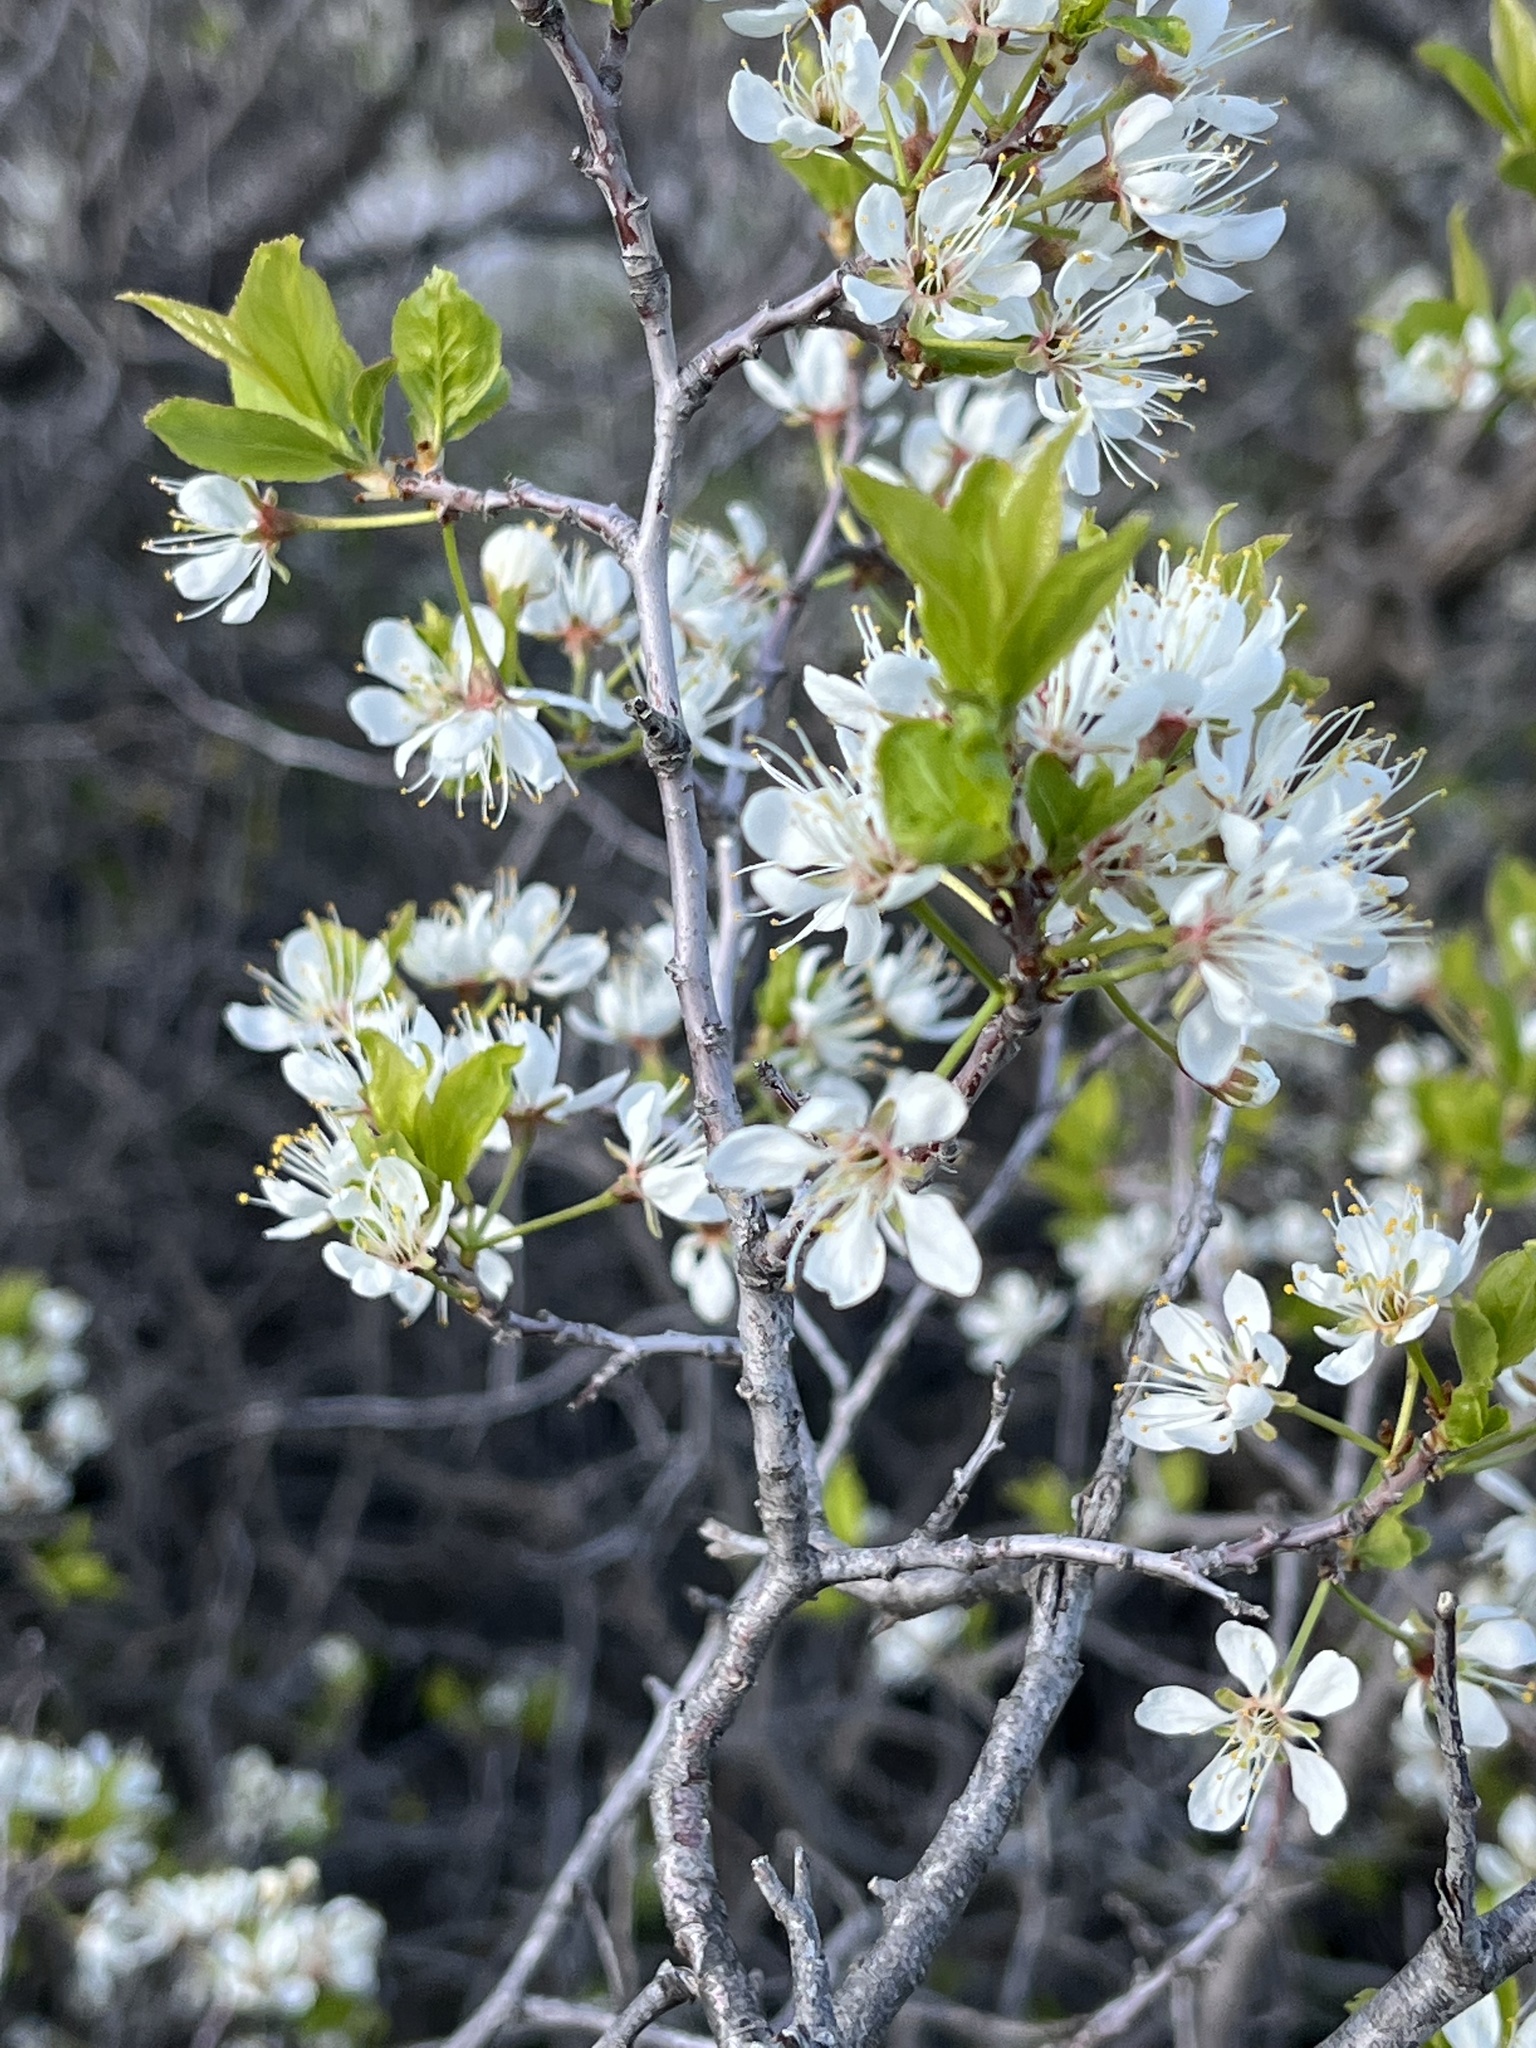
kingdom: Plantae
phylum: Tracheophyta
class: Magnoliopsida
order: Rosales
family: Rosaceae
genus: Prunus
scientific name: Prunus americana
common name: American plum
